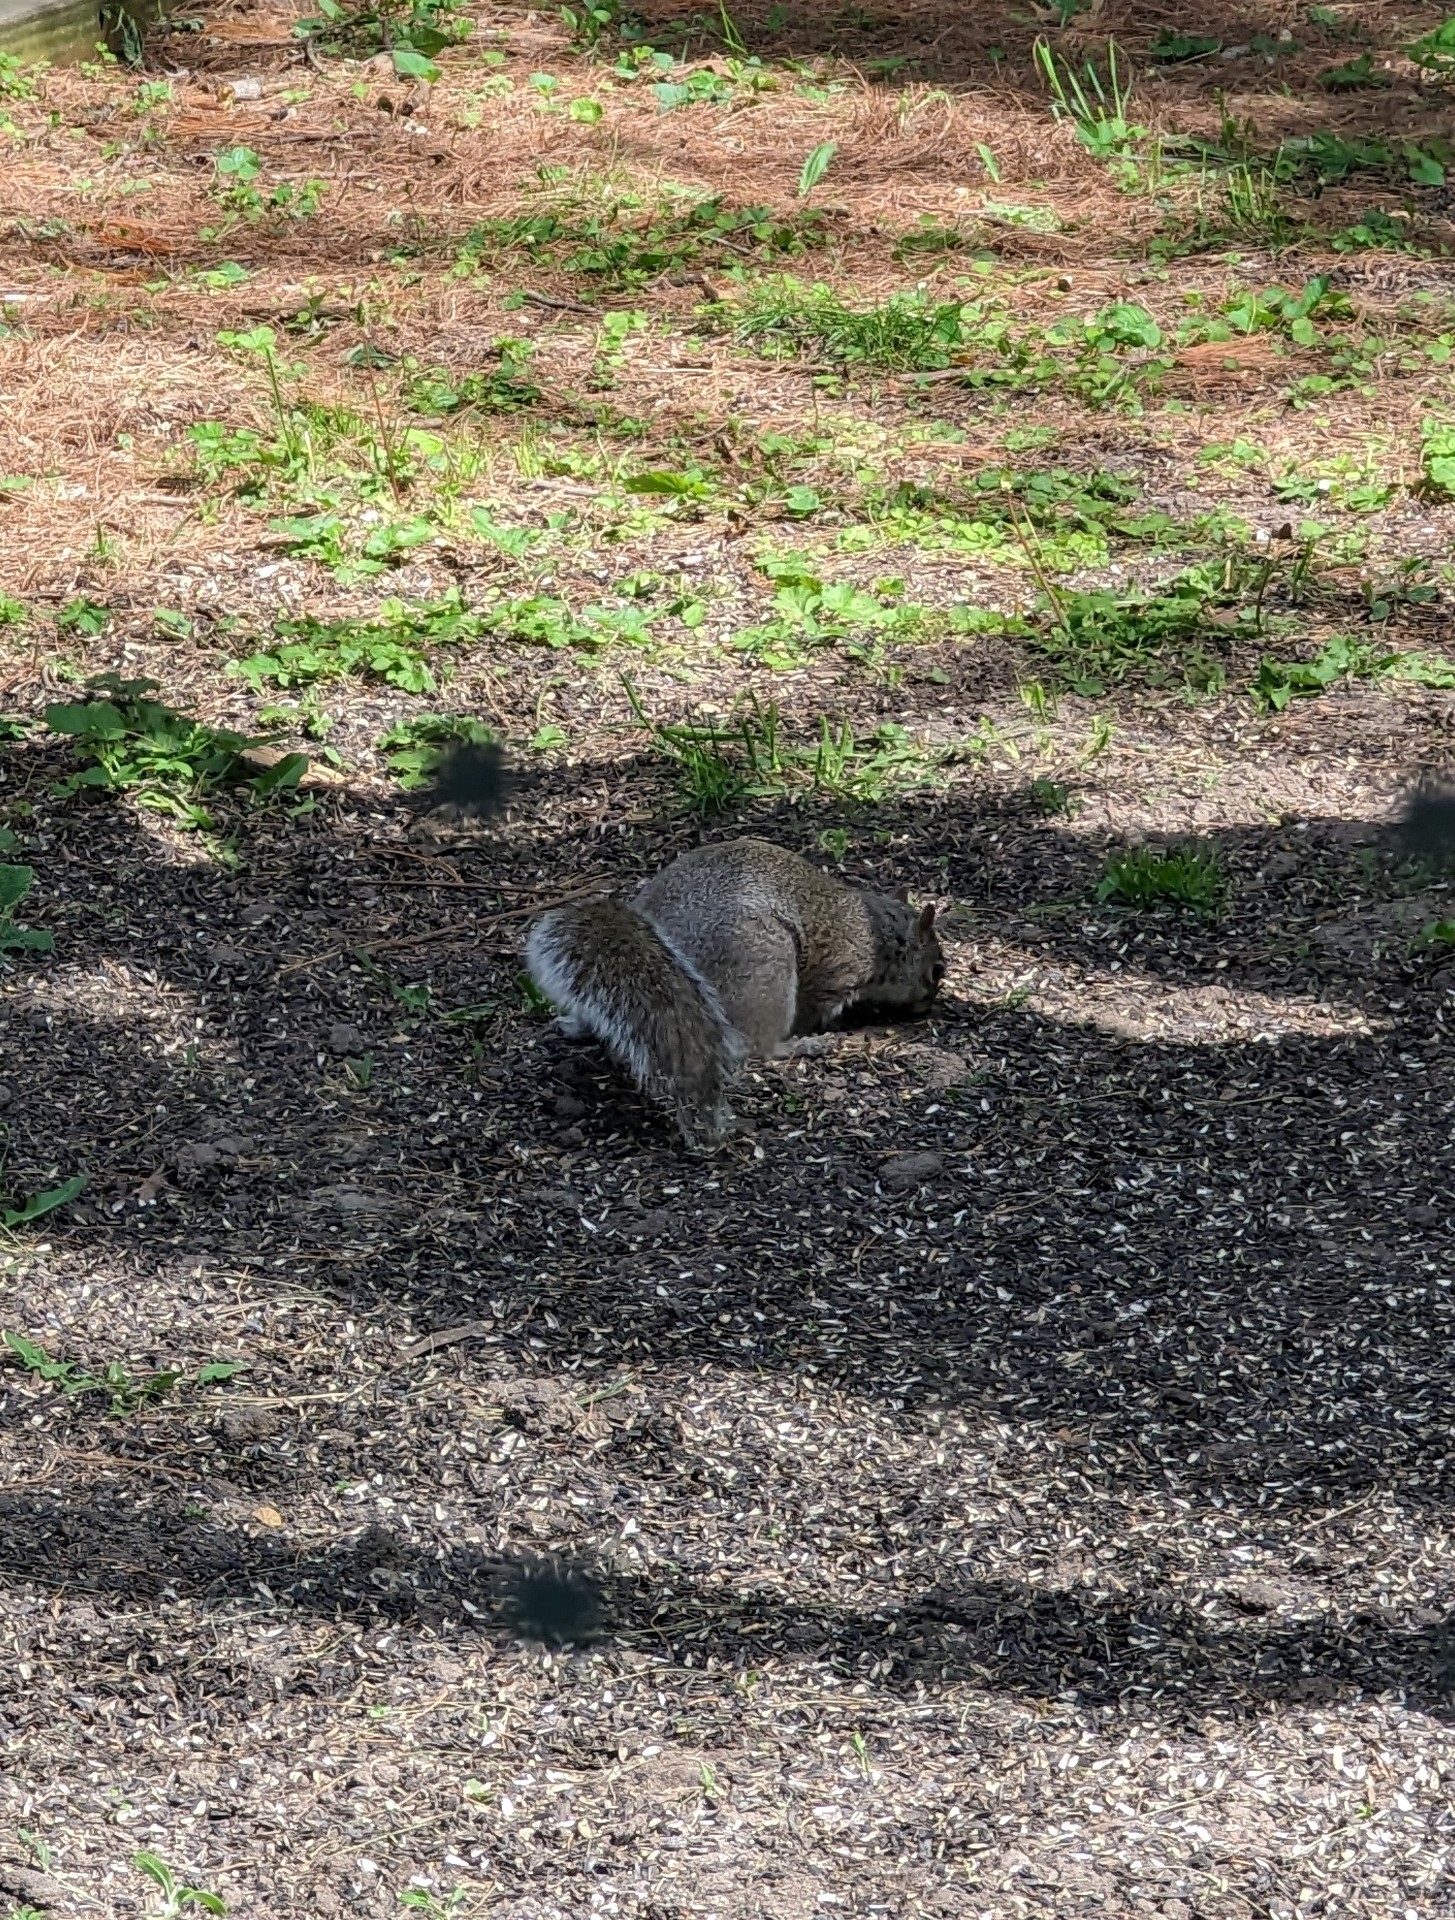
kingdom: Animalia
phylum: Chordata
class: Mammalia
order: Rodentia
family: Sciuridae
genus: Sciurus
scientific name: Sciurus carolinensis
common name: Eastern gray squirrel
